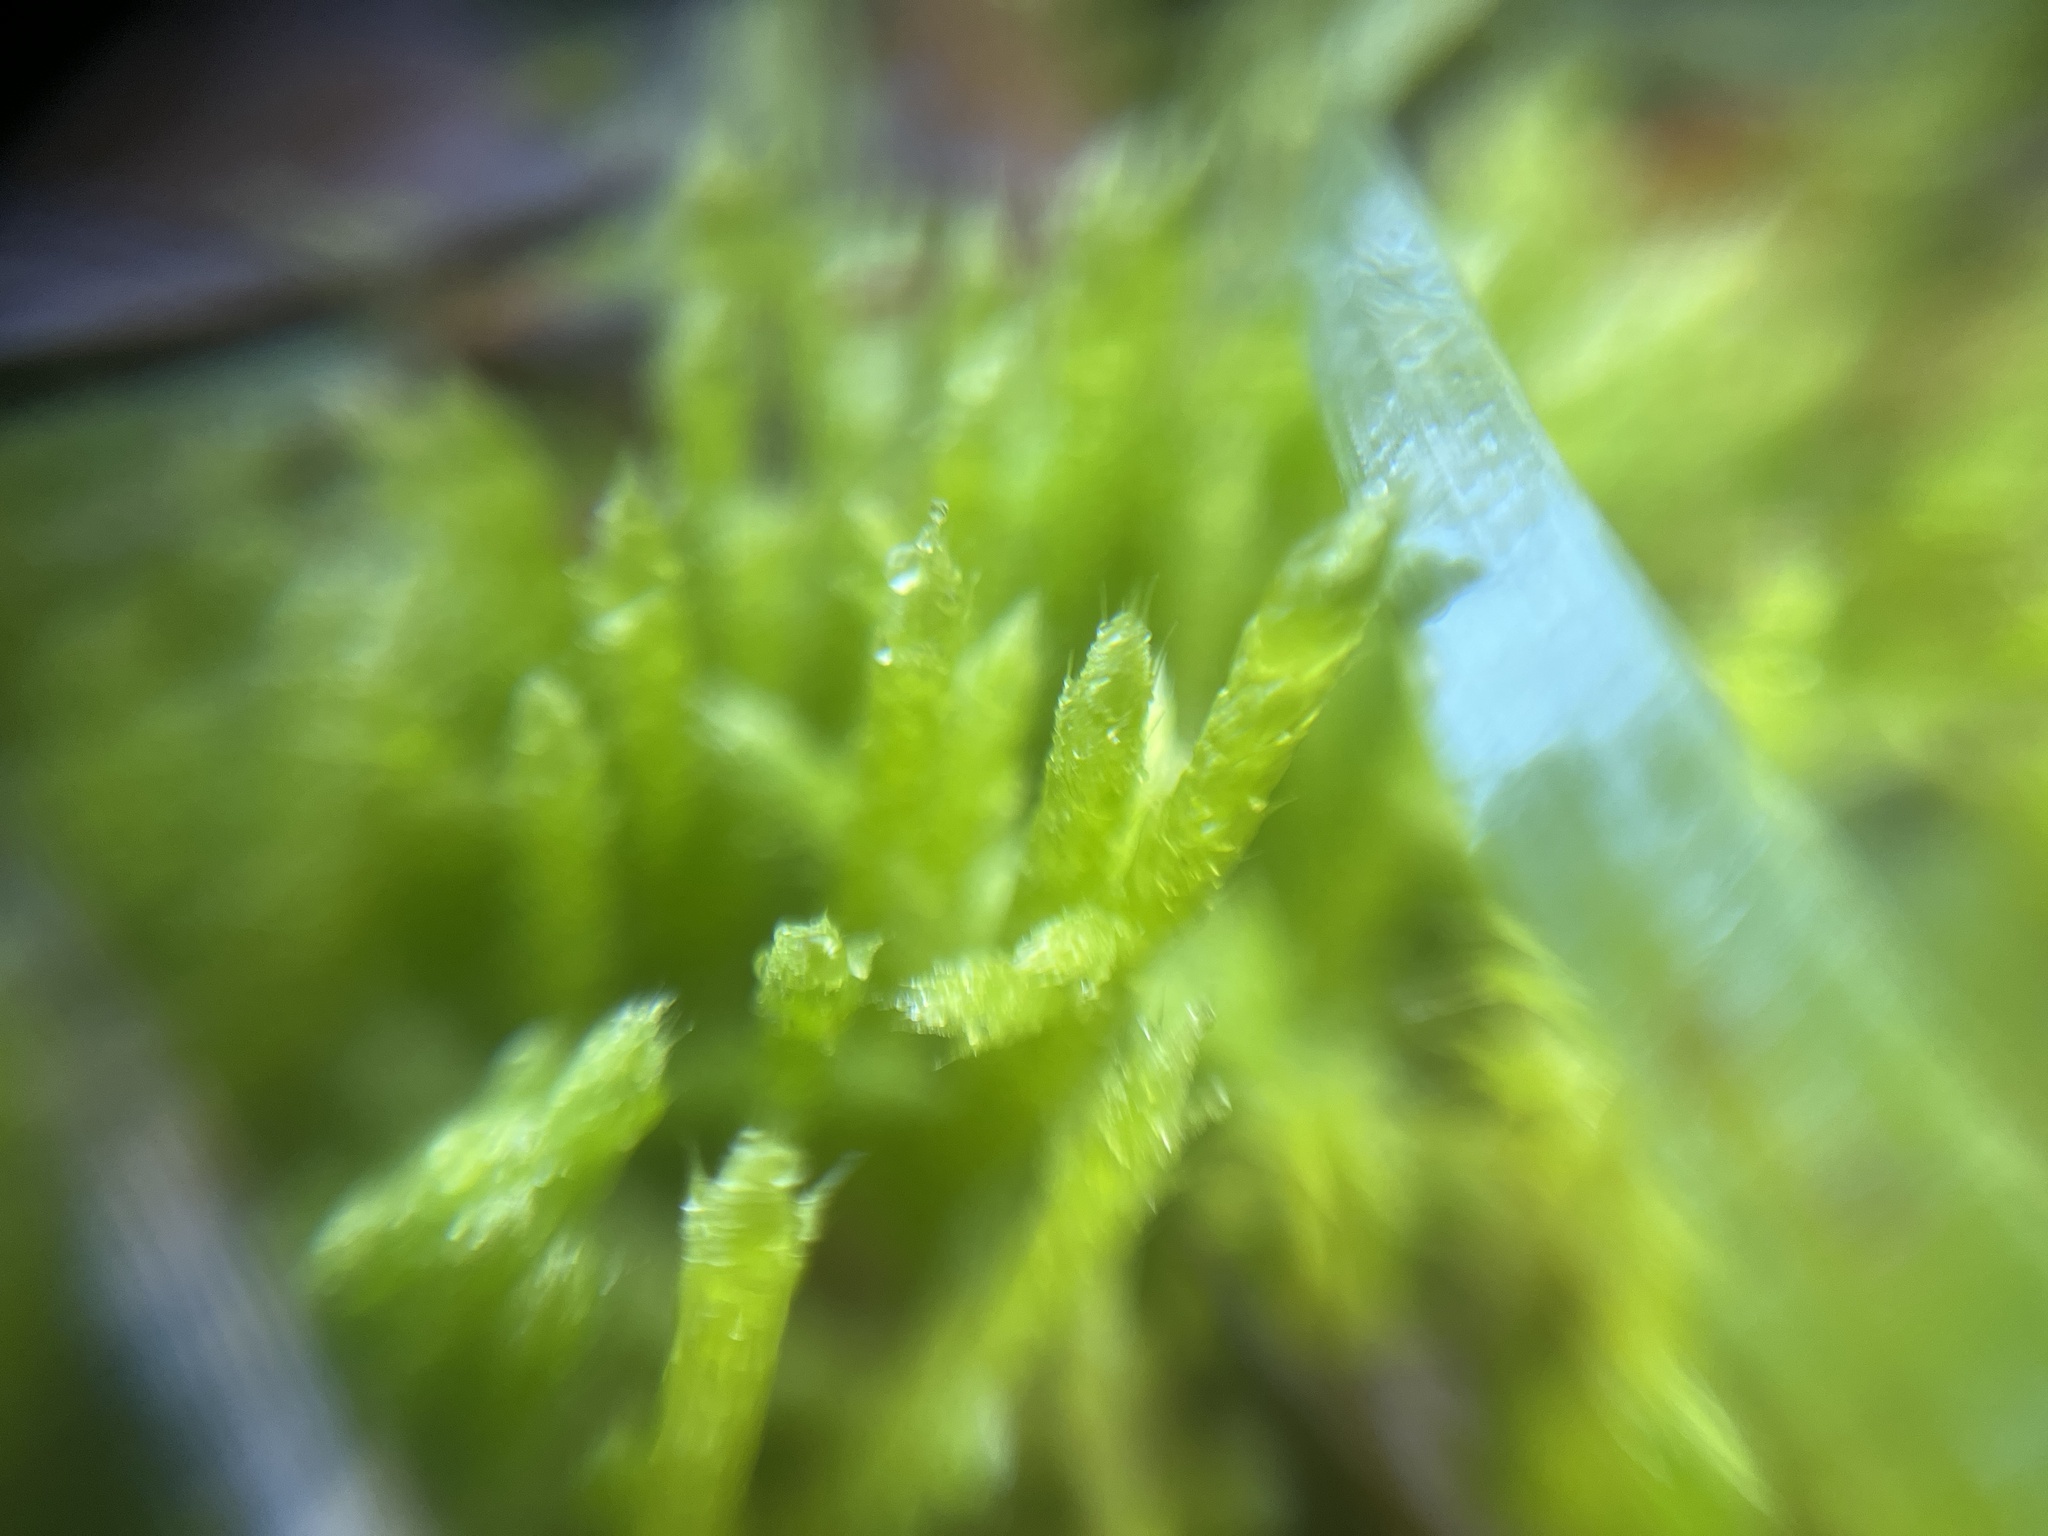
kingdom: Plantae
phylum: Bryophyta
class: Bryopsida
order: Hypnales
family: Brachytheciaceae
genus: Brachythecium
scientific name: Brachythecium albicans
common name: Whitish ragged moss
